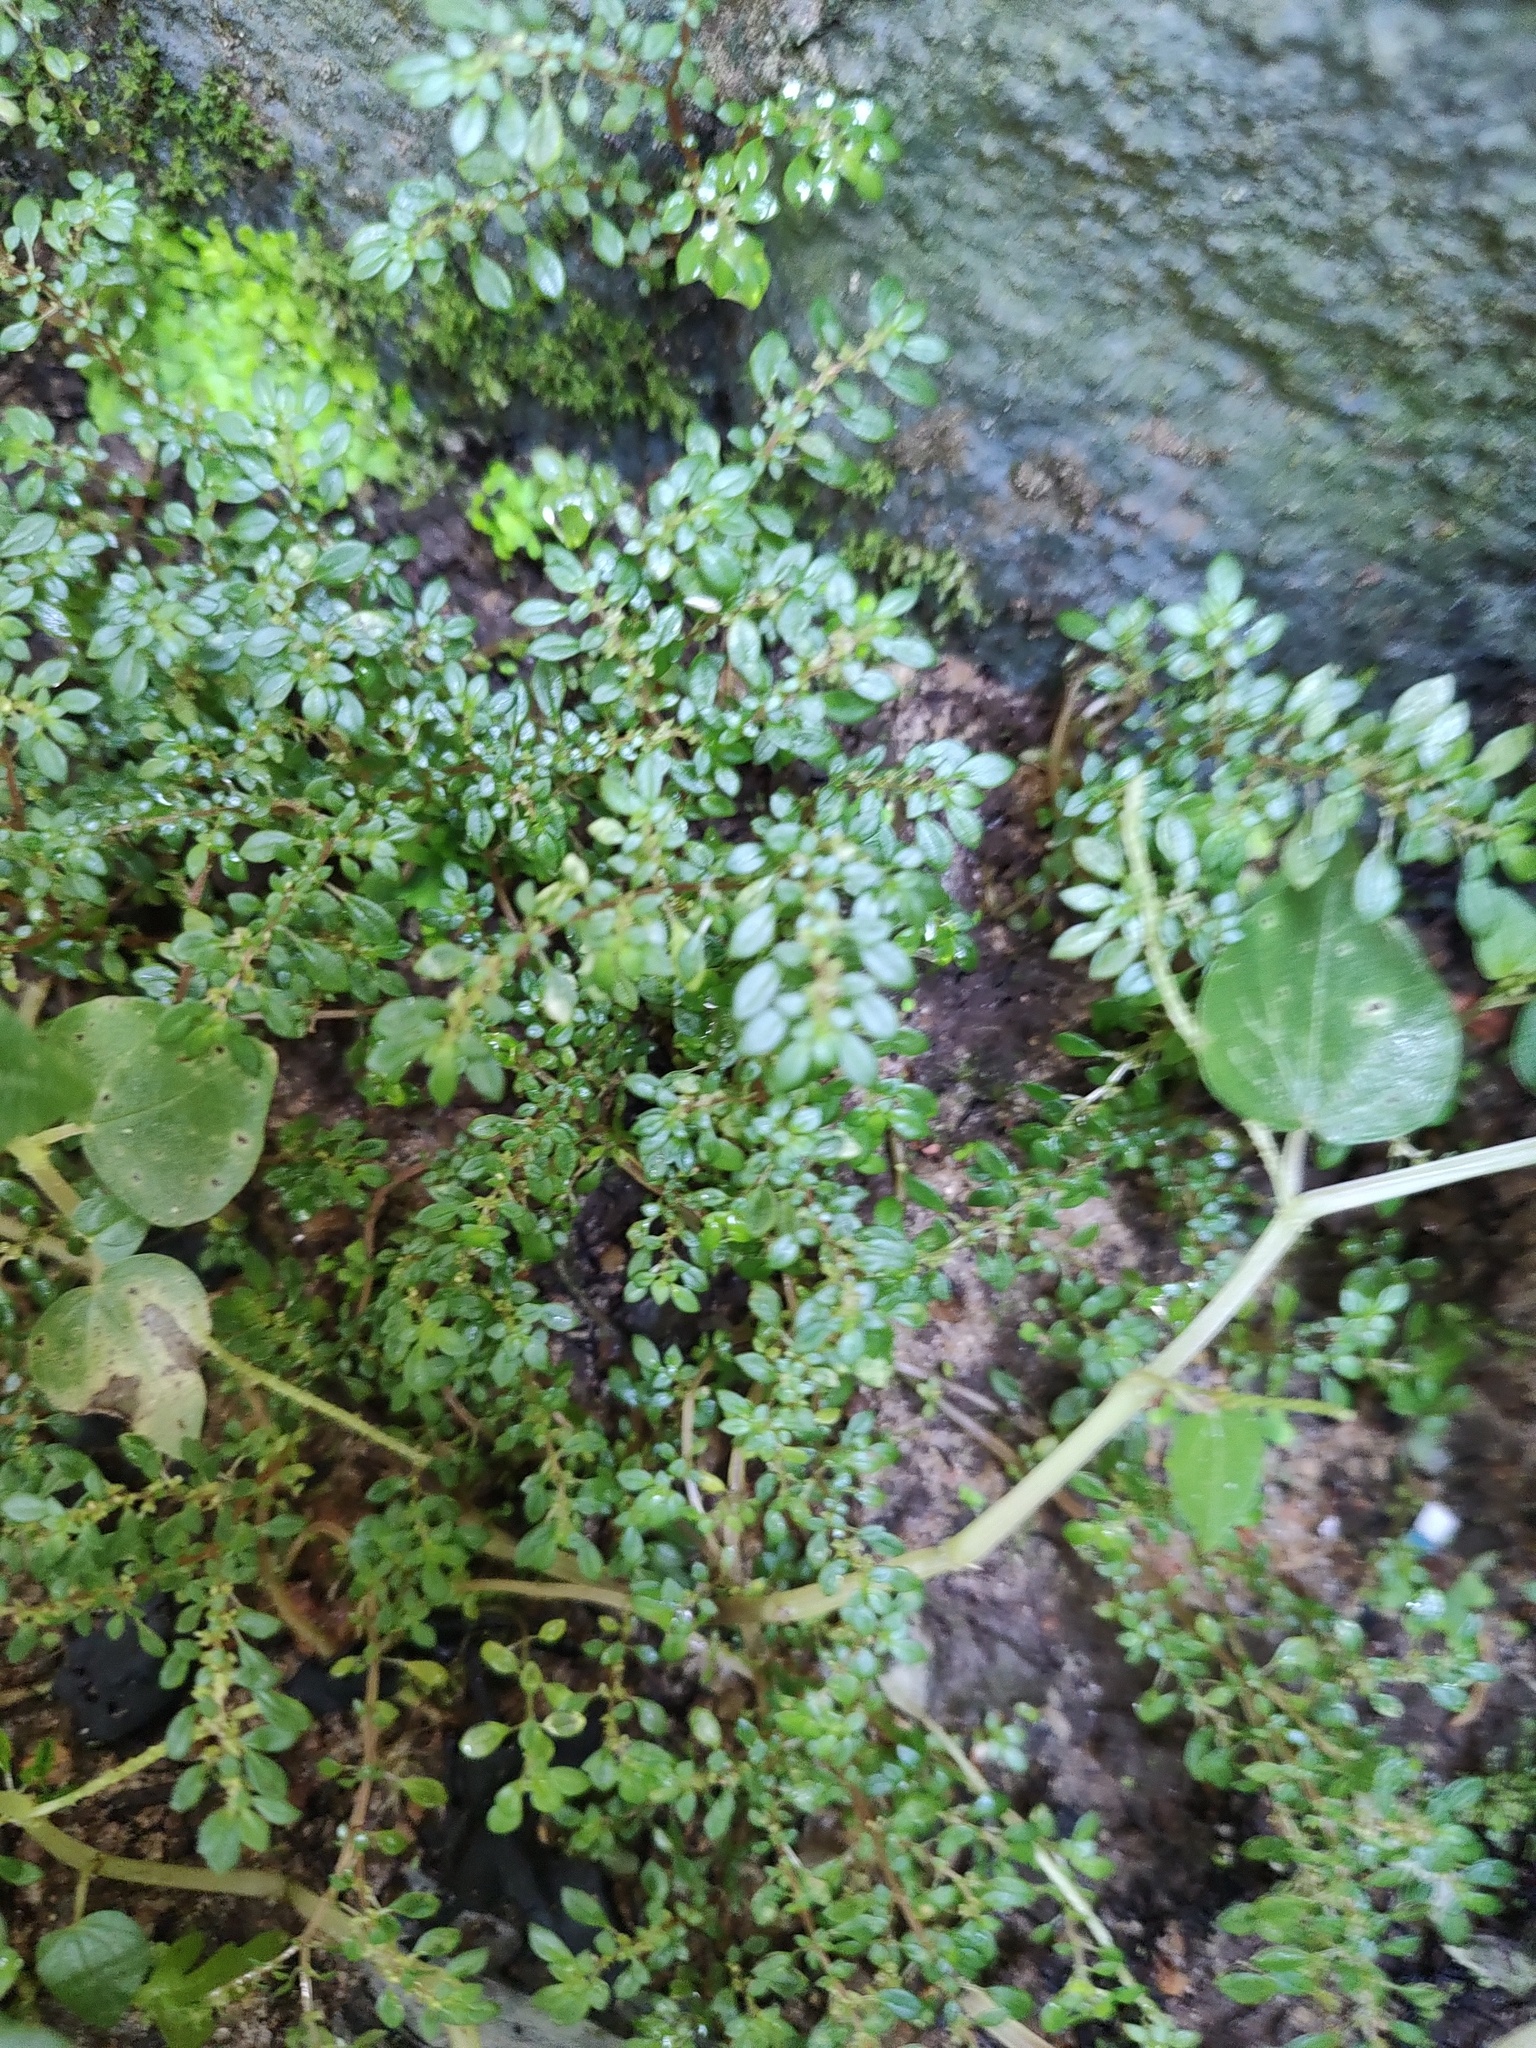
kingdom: Plantae
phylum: Tracheophyta
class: Magnoliopsida
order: Rosales
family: Urticaceae
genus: Pilea
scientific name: Pilea microphylla
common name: Artillery-plant
